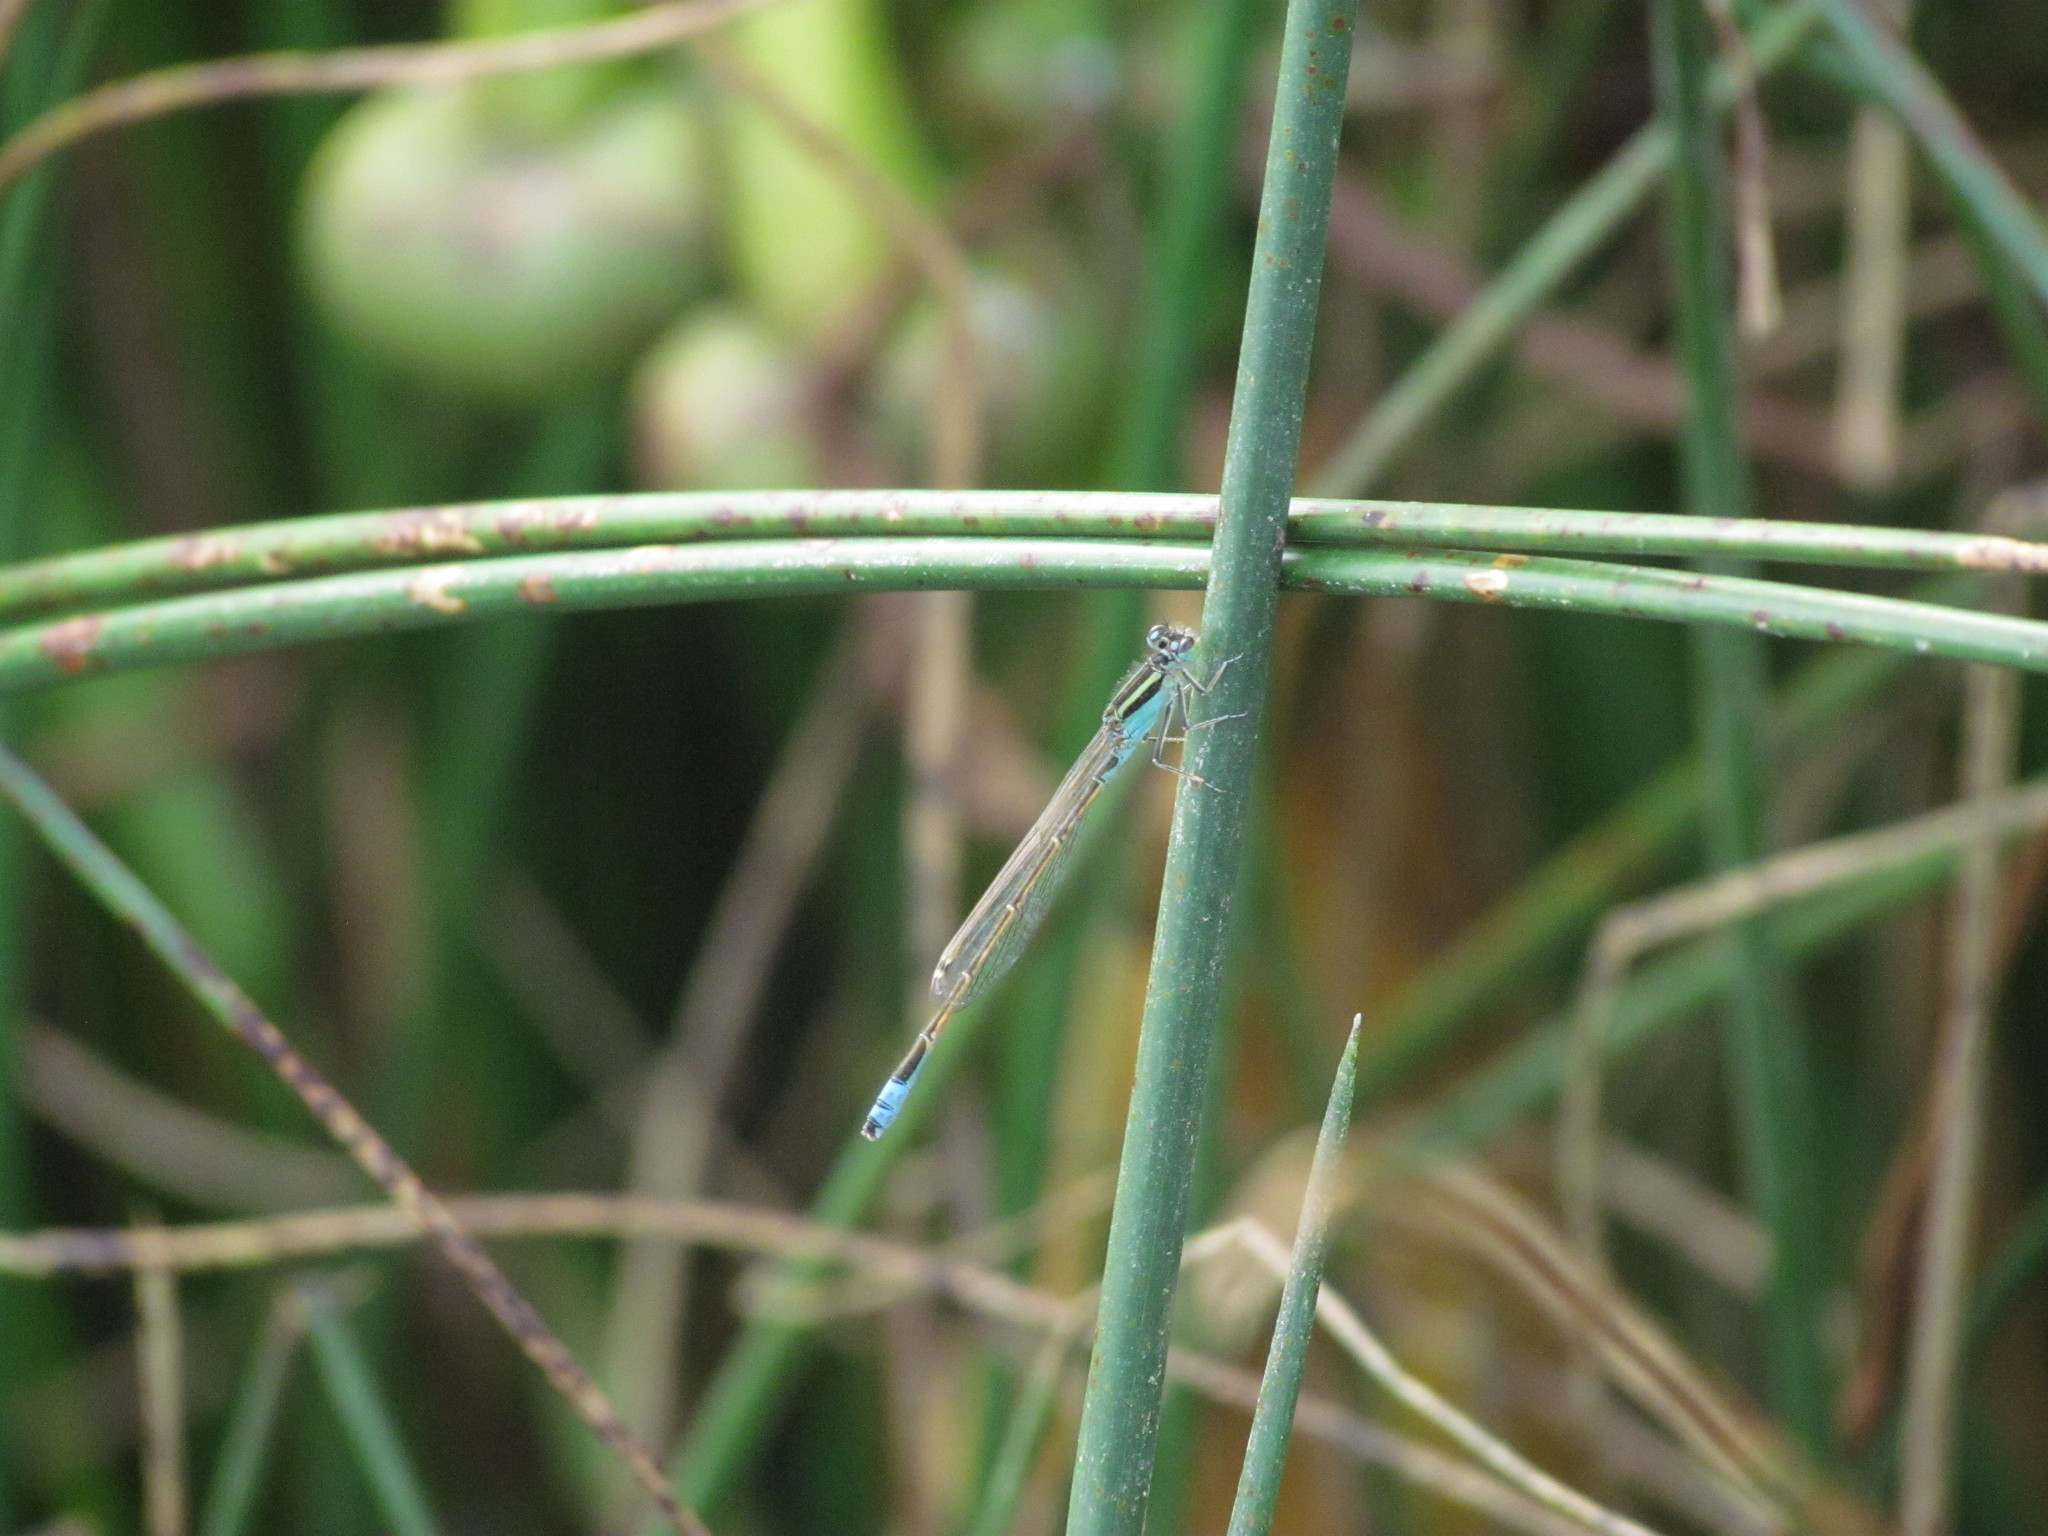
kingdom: Animalia
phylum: Arthropoda
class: Insecta
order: Odonata
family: Coenagrionidae
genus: Ischnura
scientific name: Ischnura fluviatilis
